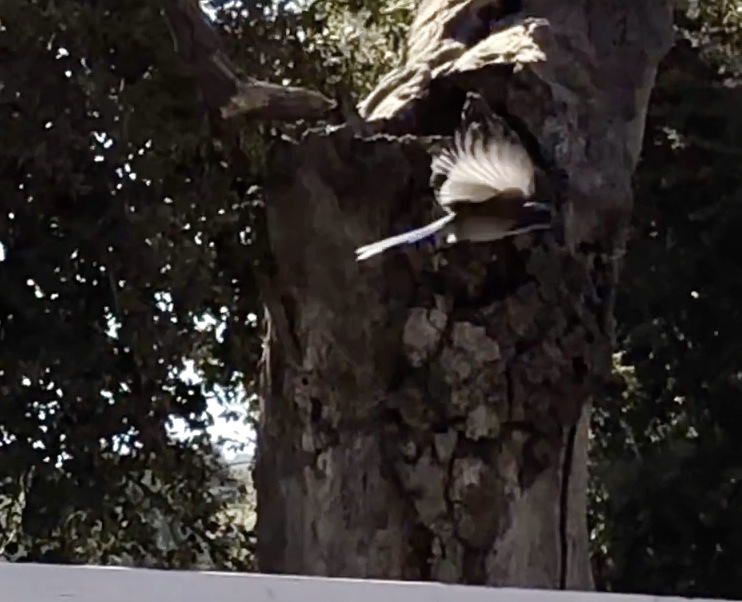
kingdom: Animalia
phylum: Chordata
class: Aves
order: Passeriformes
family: Corvidae
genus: Aphelocoma
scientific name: Aphelocoma californica
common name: California scrub-jay
